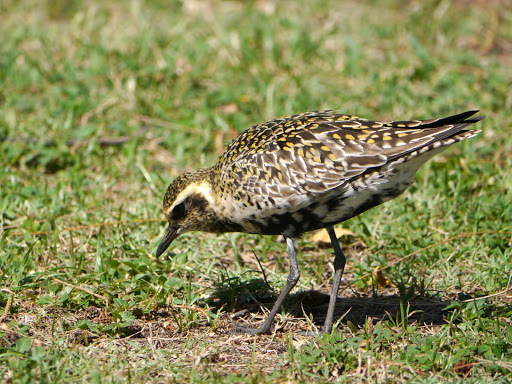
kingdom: Animalia
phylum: Chordata
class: Aves
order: Charadriiformes
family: Charadriidae
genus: Pluvialis
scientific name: Pluvialis fulva
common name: Pacific golden plover
